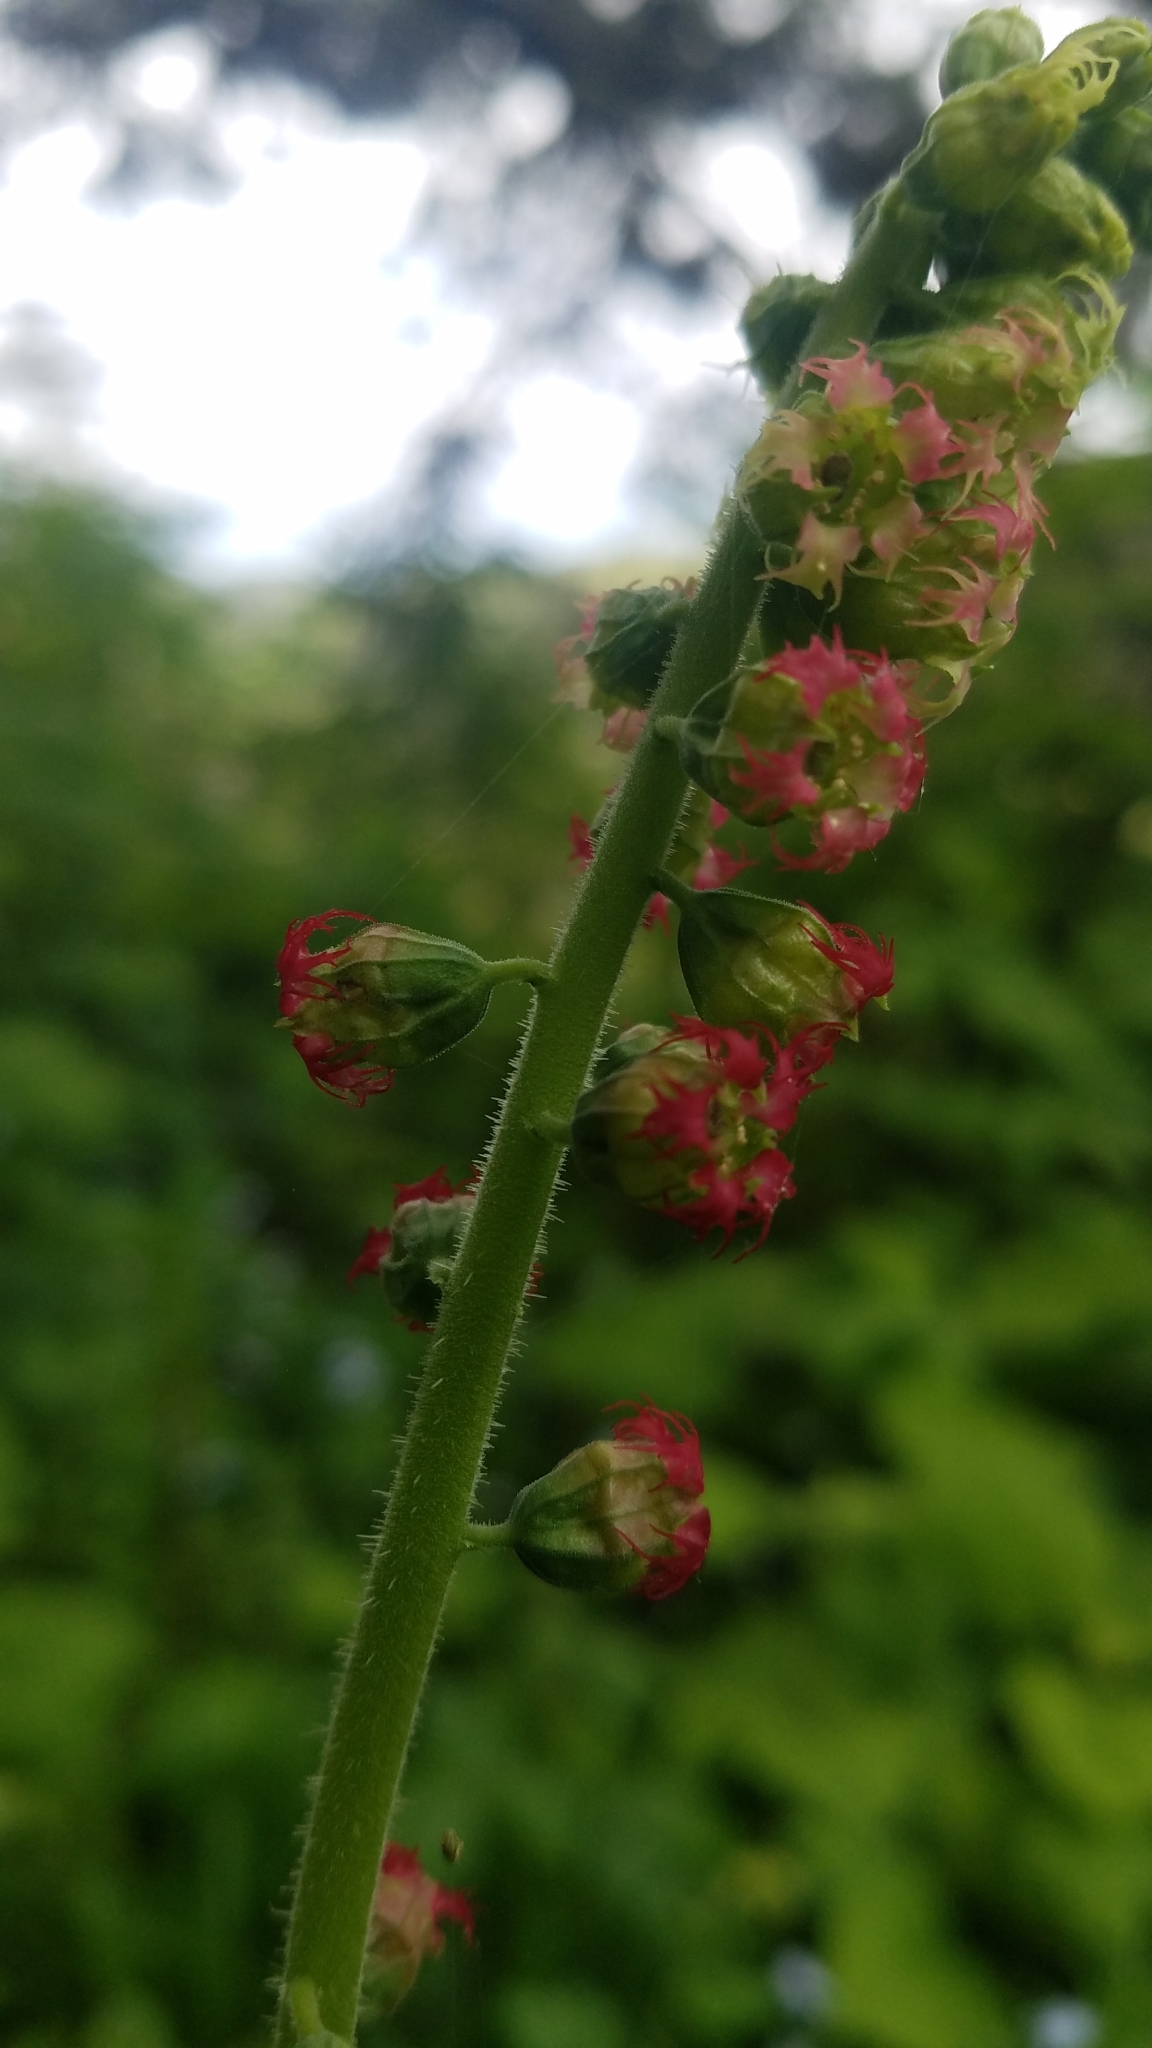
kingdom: Plantae
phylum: Tracheophyta
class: Magnoliopsida
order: Saxifragales
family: Saxifragaceae
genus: Tellima
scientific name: Tellima grandiflora
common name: Fringecups
